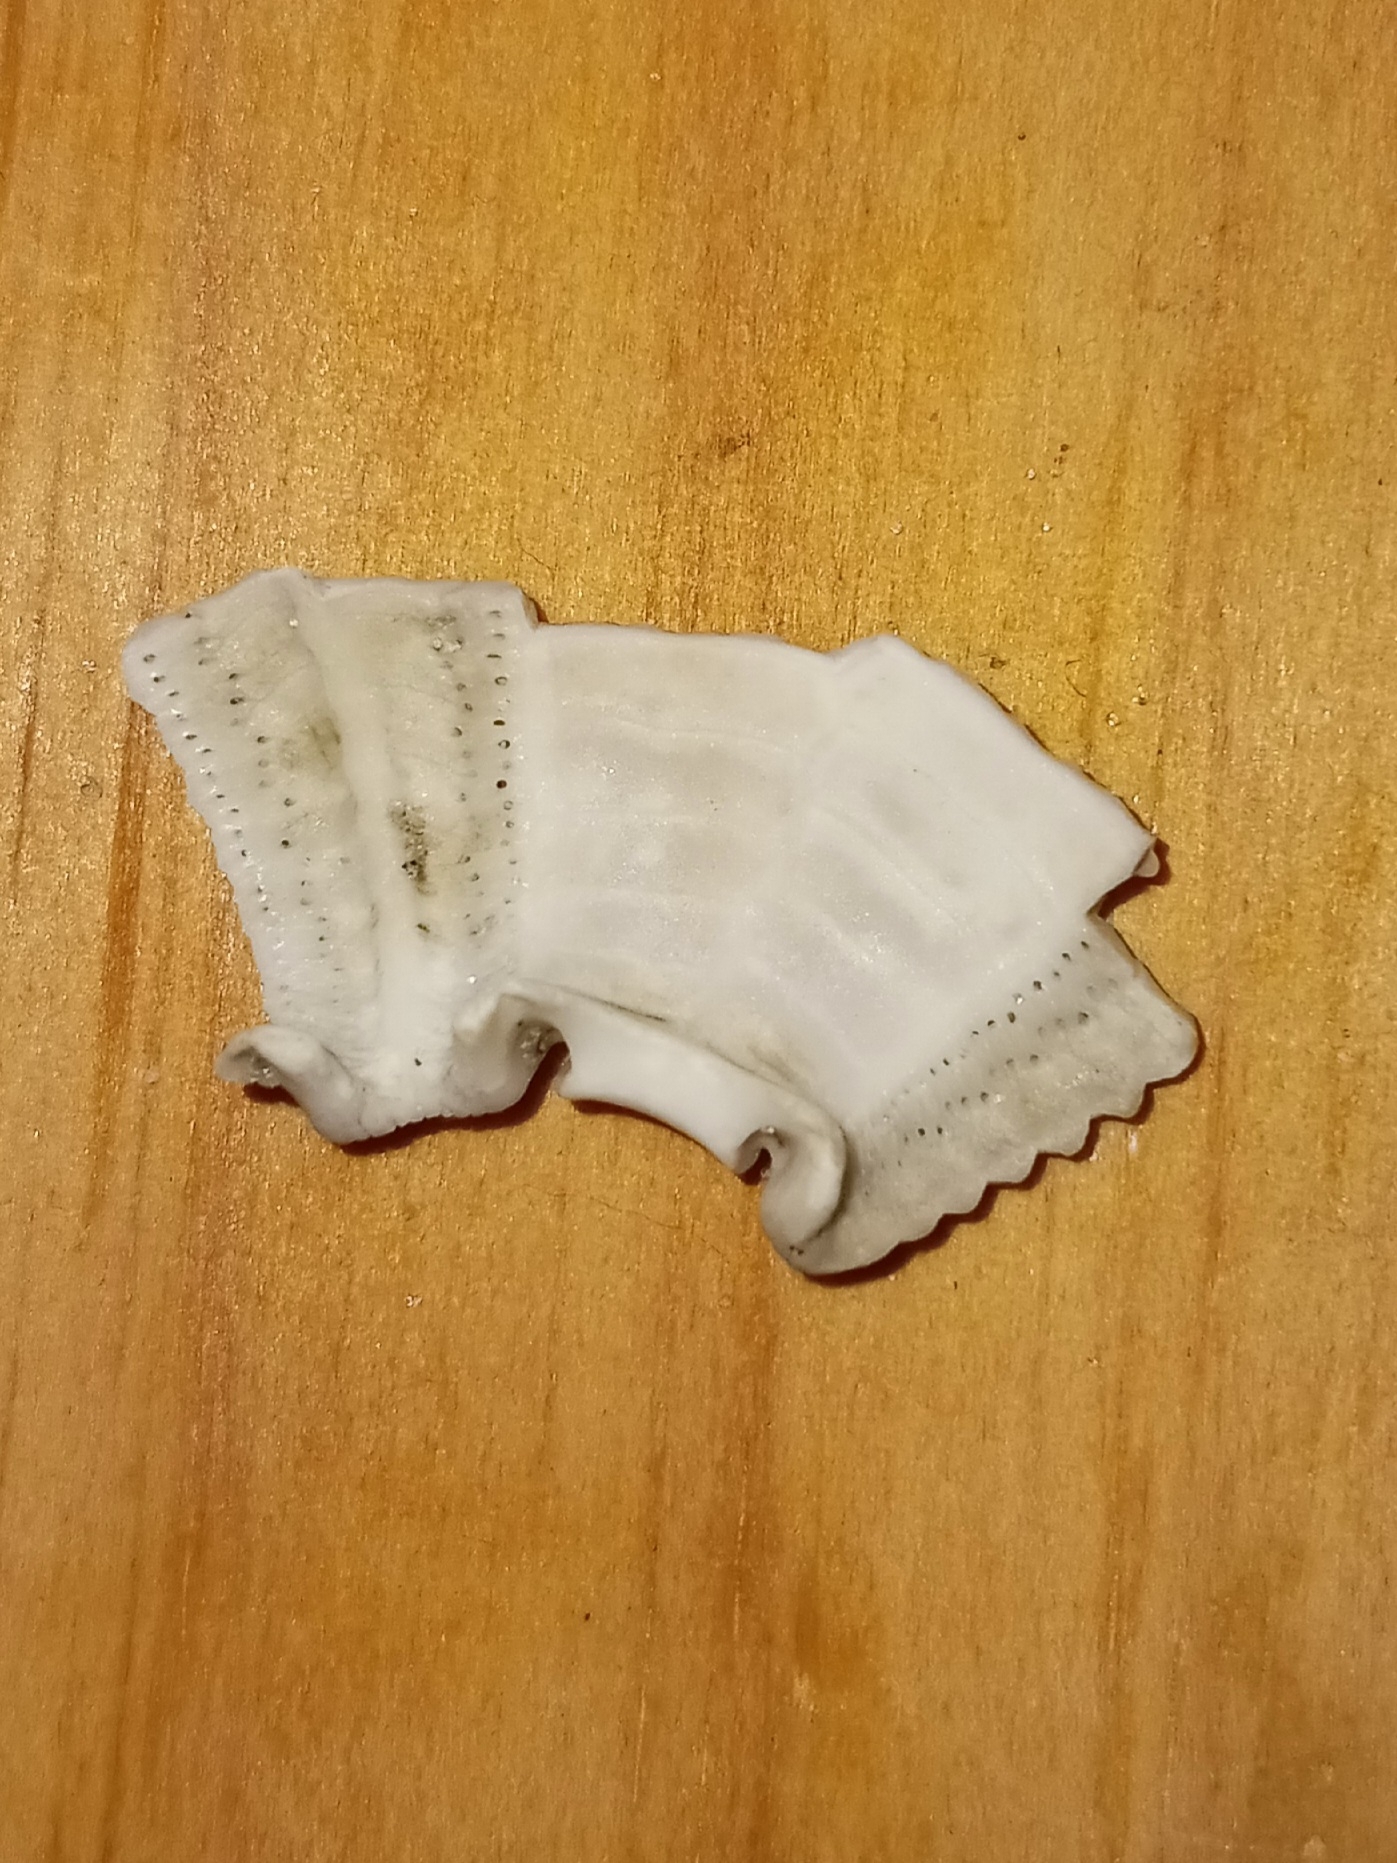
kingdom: Animalia
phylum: Echinodermata
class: Echinoidea
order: Arbacioida
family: Arbaciidae
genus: Arbacia
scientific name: Arbacia punctulata
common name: Purple-spined sea urchin
